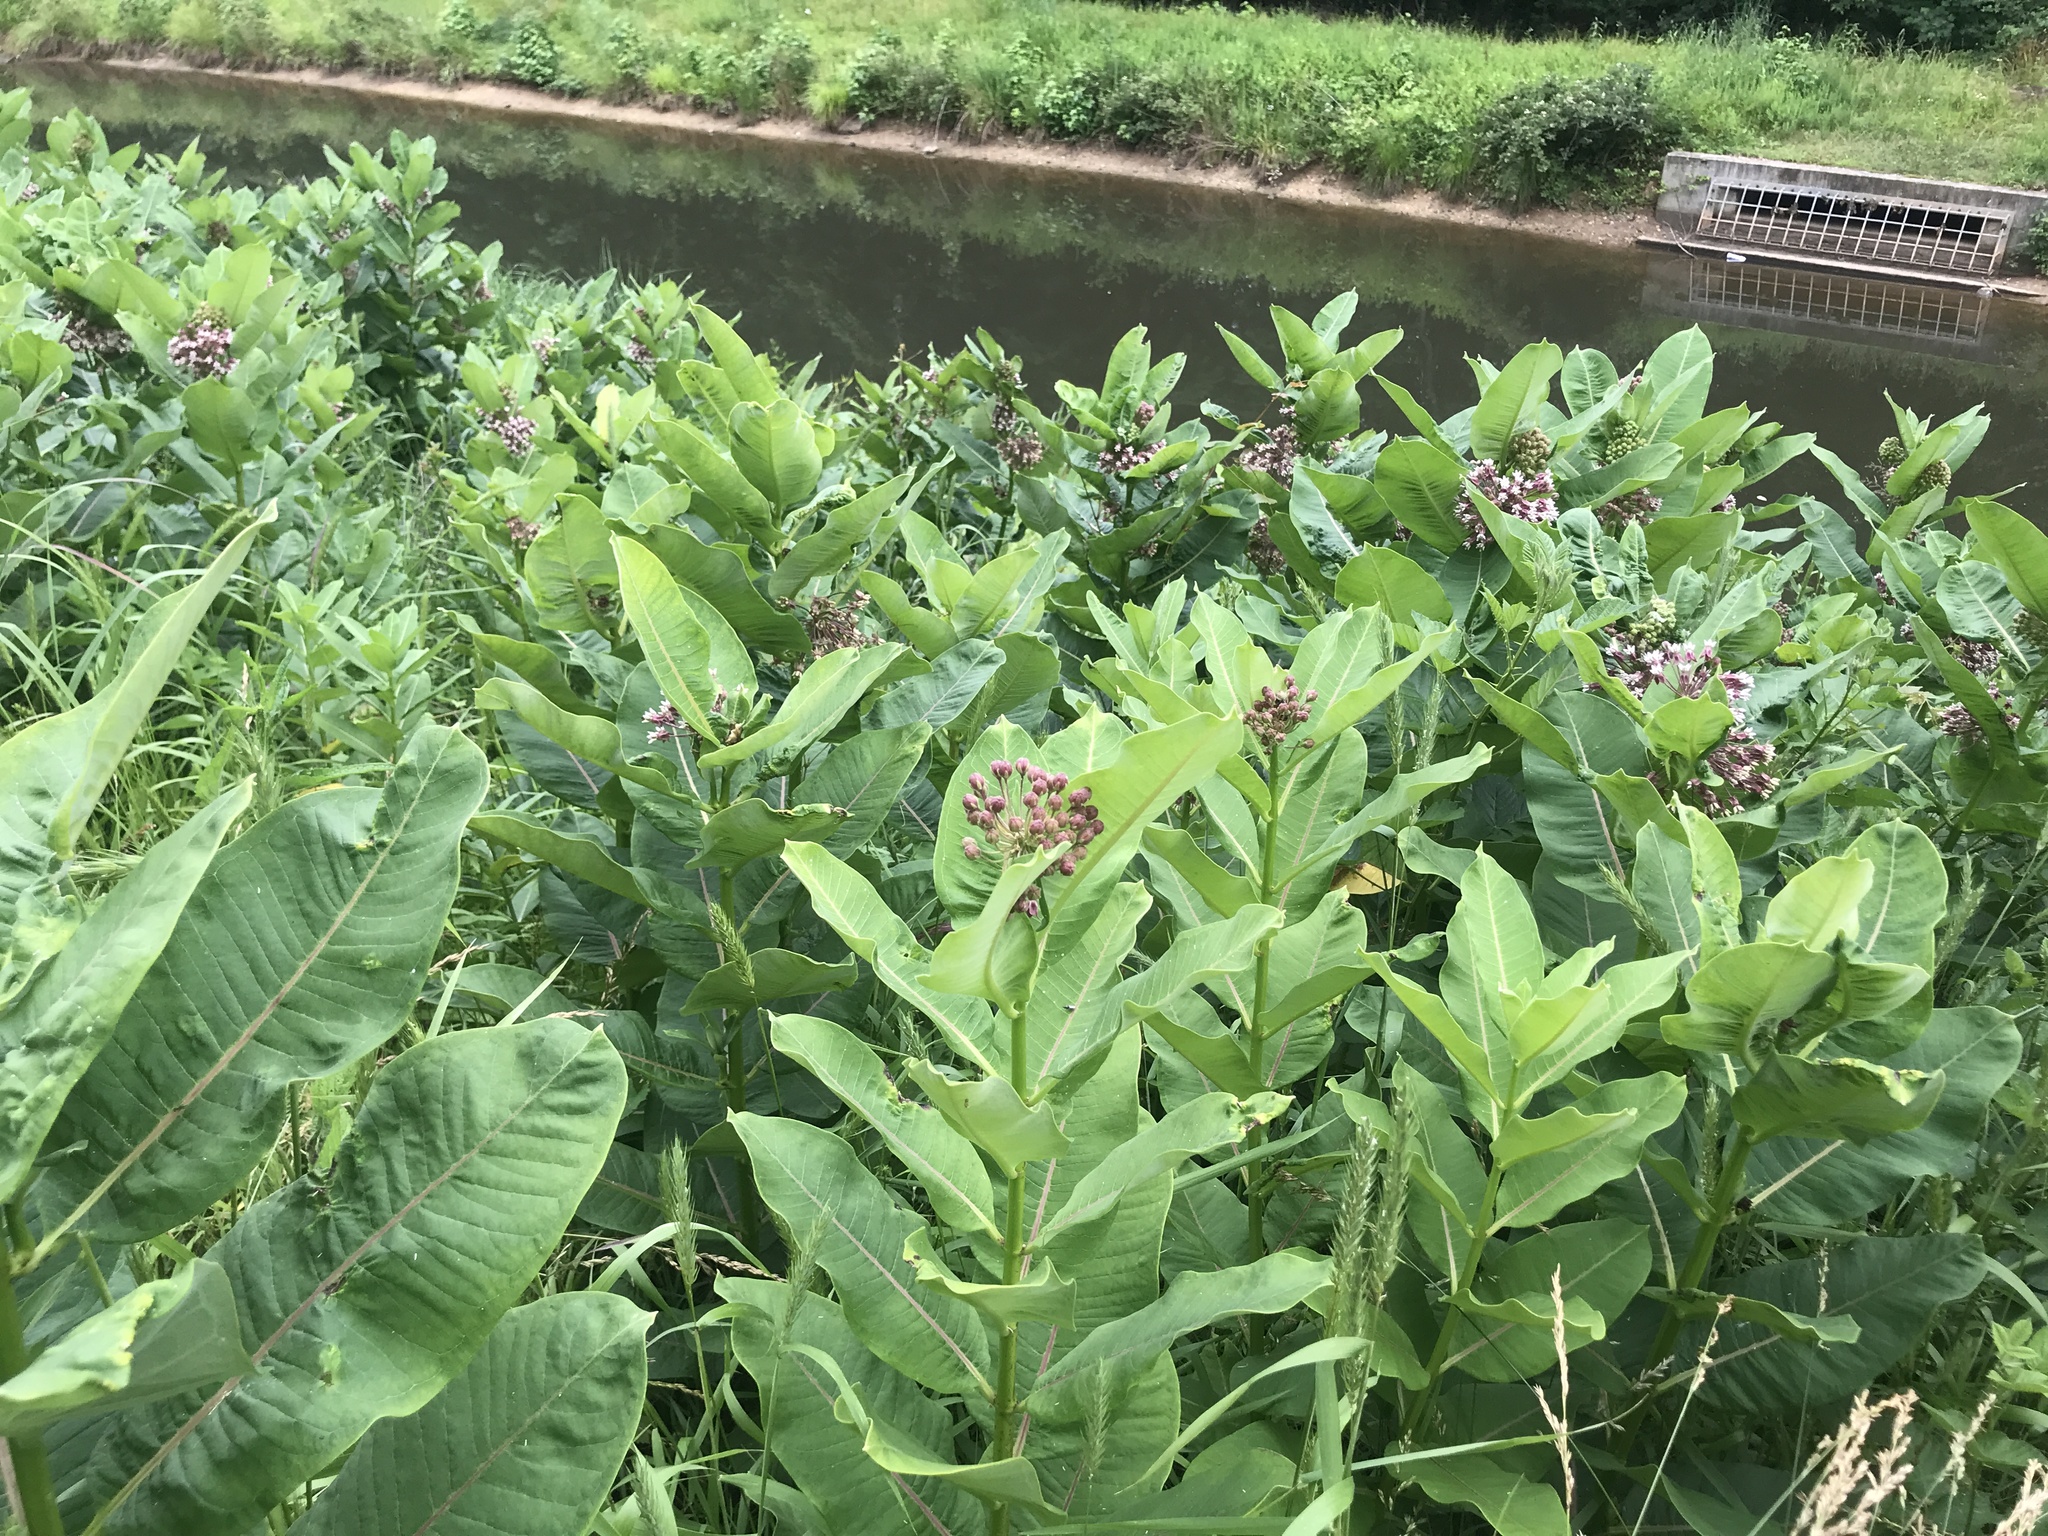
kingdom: Plantae
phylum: Tracheophyta
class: Magnoliopsida
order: Gentianales
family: Apocynaceae
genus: Asclepias
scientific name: Asclepias syriaca
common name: Common milkweed
